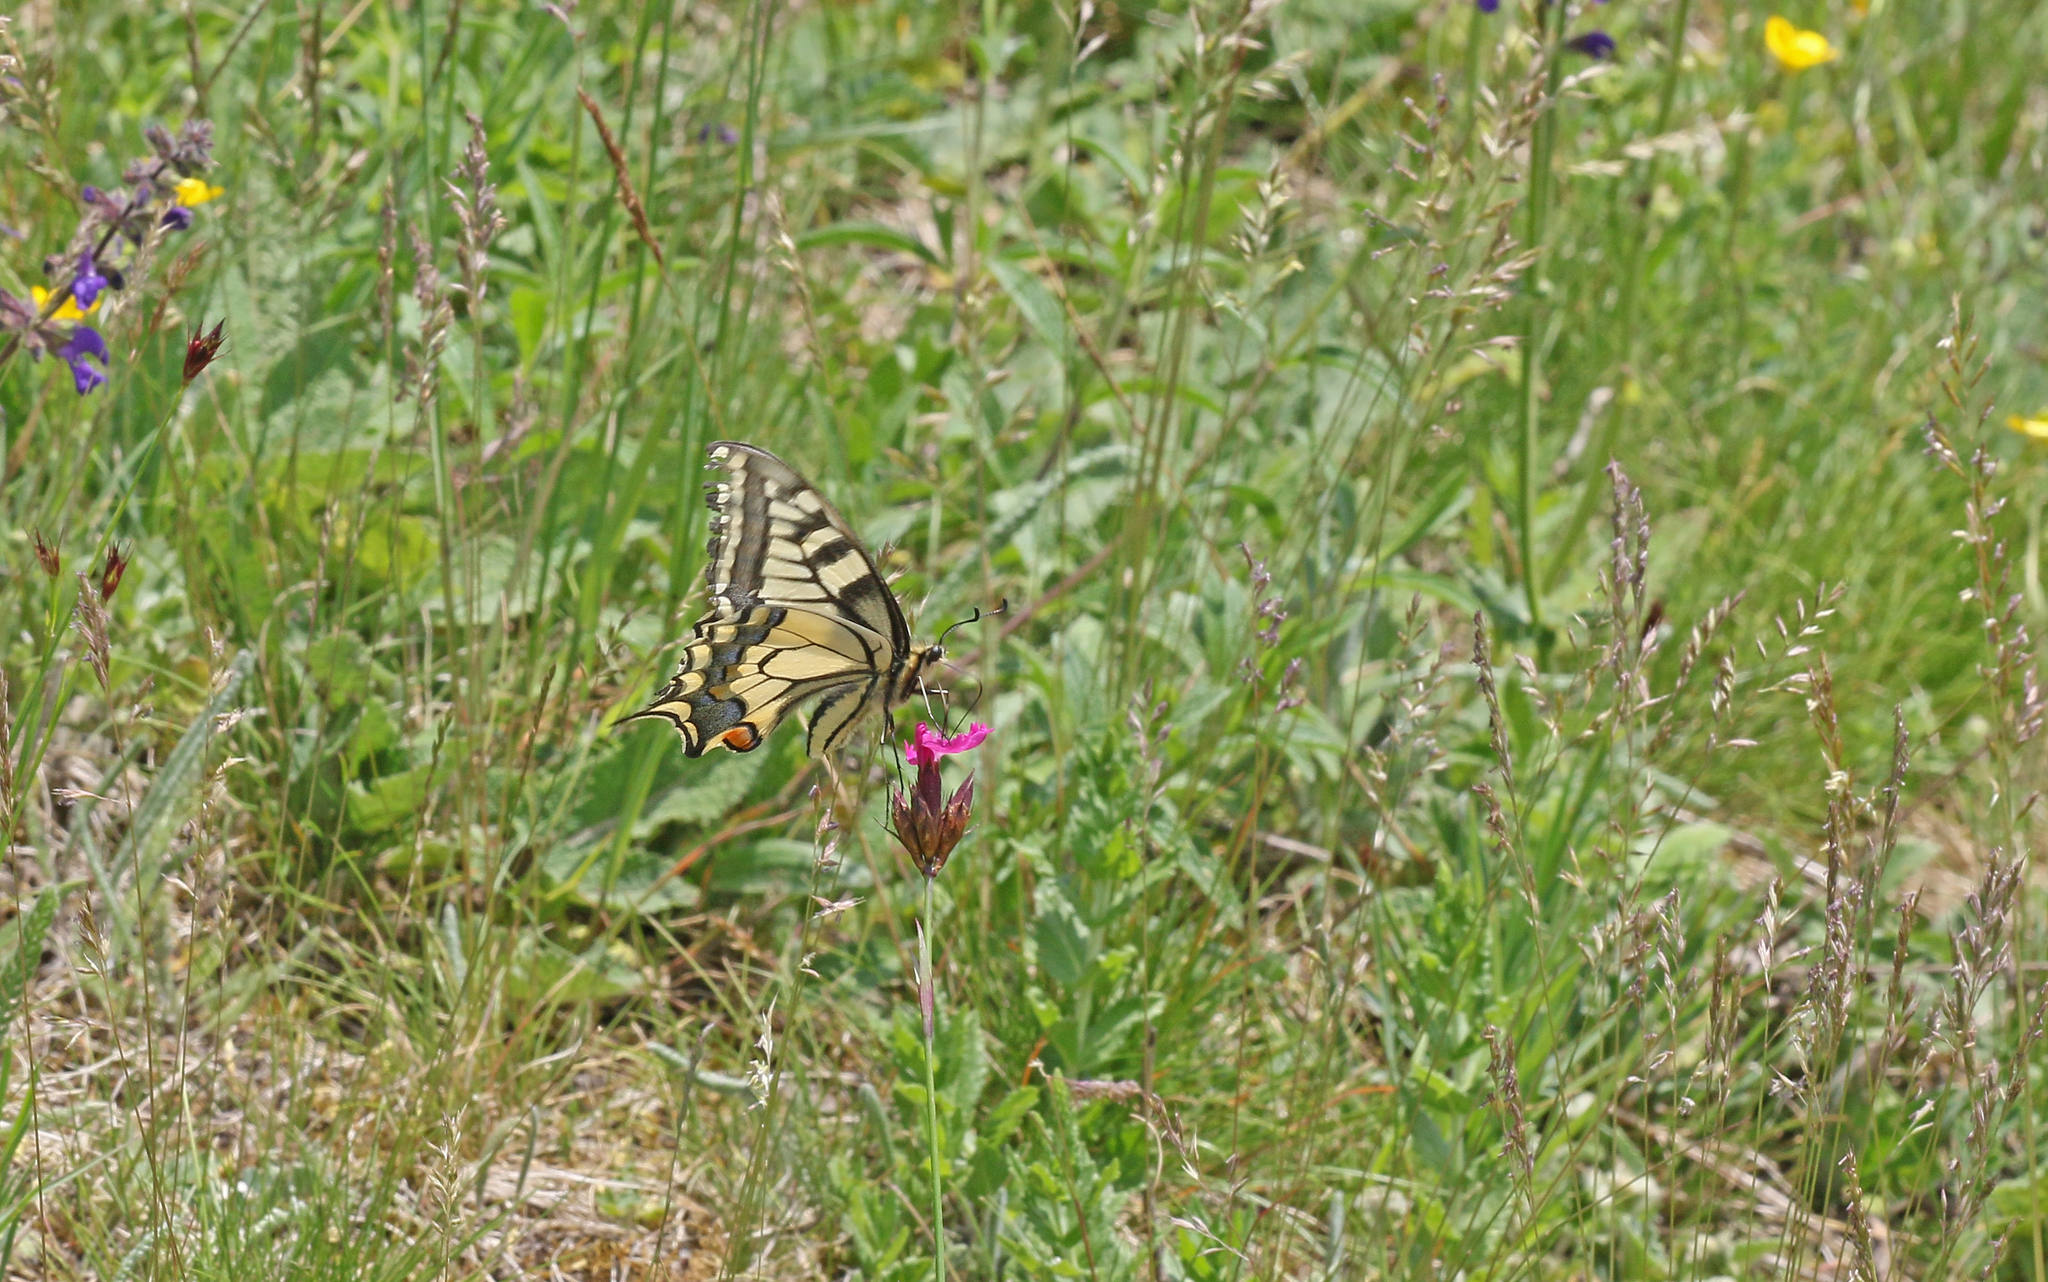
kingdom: Animalia
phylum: Arthropoda
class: Insecta
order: Lepidoptera
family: Papilionidae
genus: Papilio
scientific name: Papilio machaon
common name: Swallowtail
